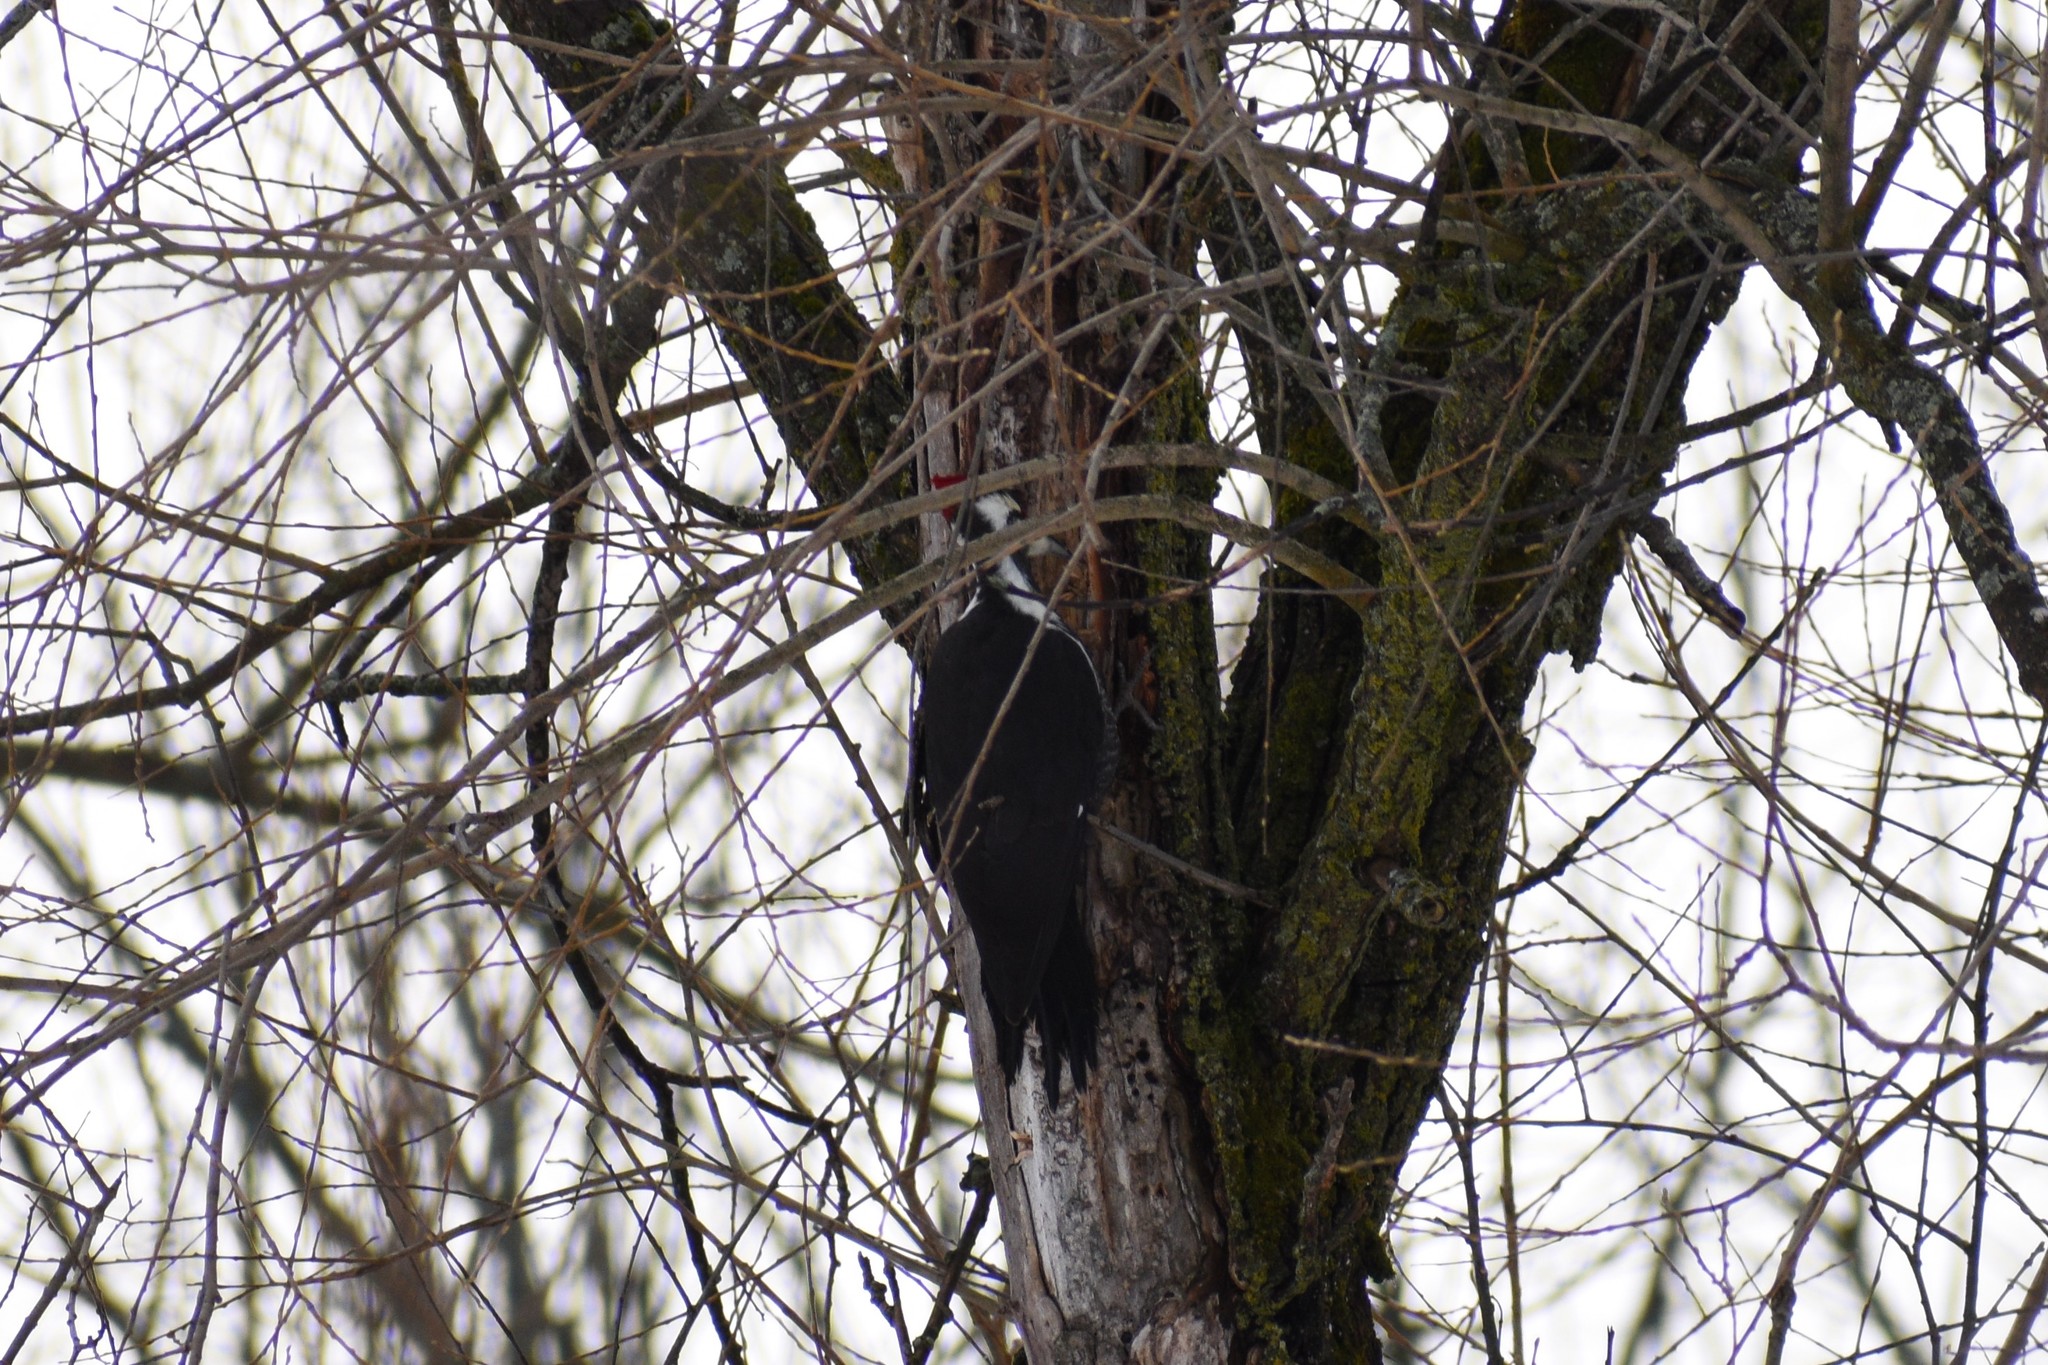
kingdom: Animalia
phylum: Chordata
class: Aves
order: Piciformes
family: Picidae
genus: Dryocopus
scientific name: Dryocopus pileatus
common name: Pileated woodpecker
